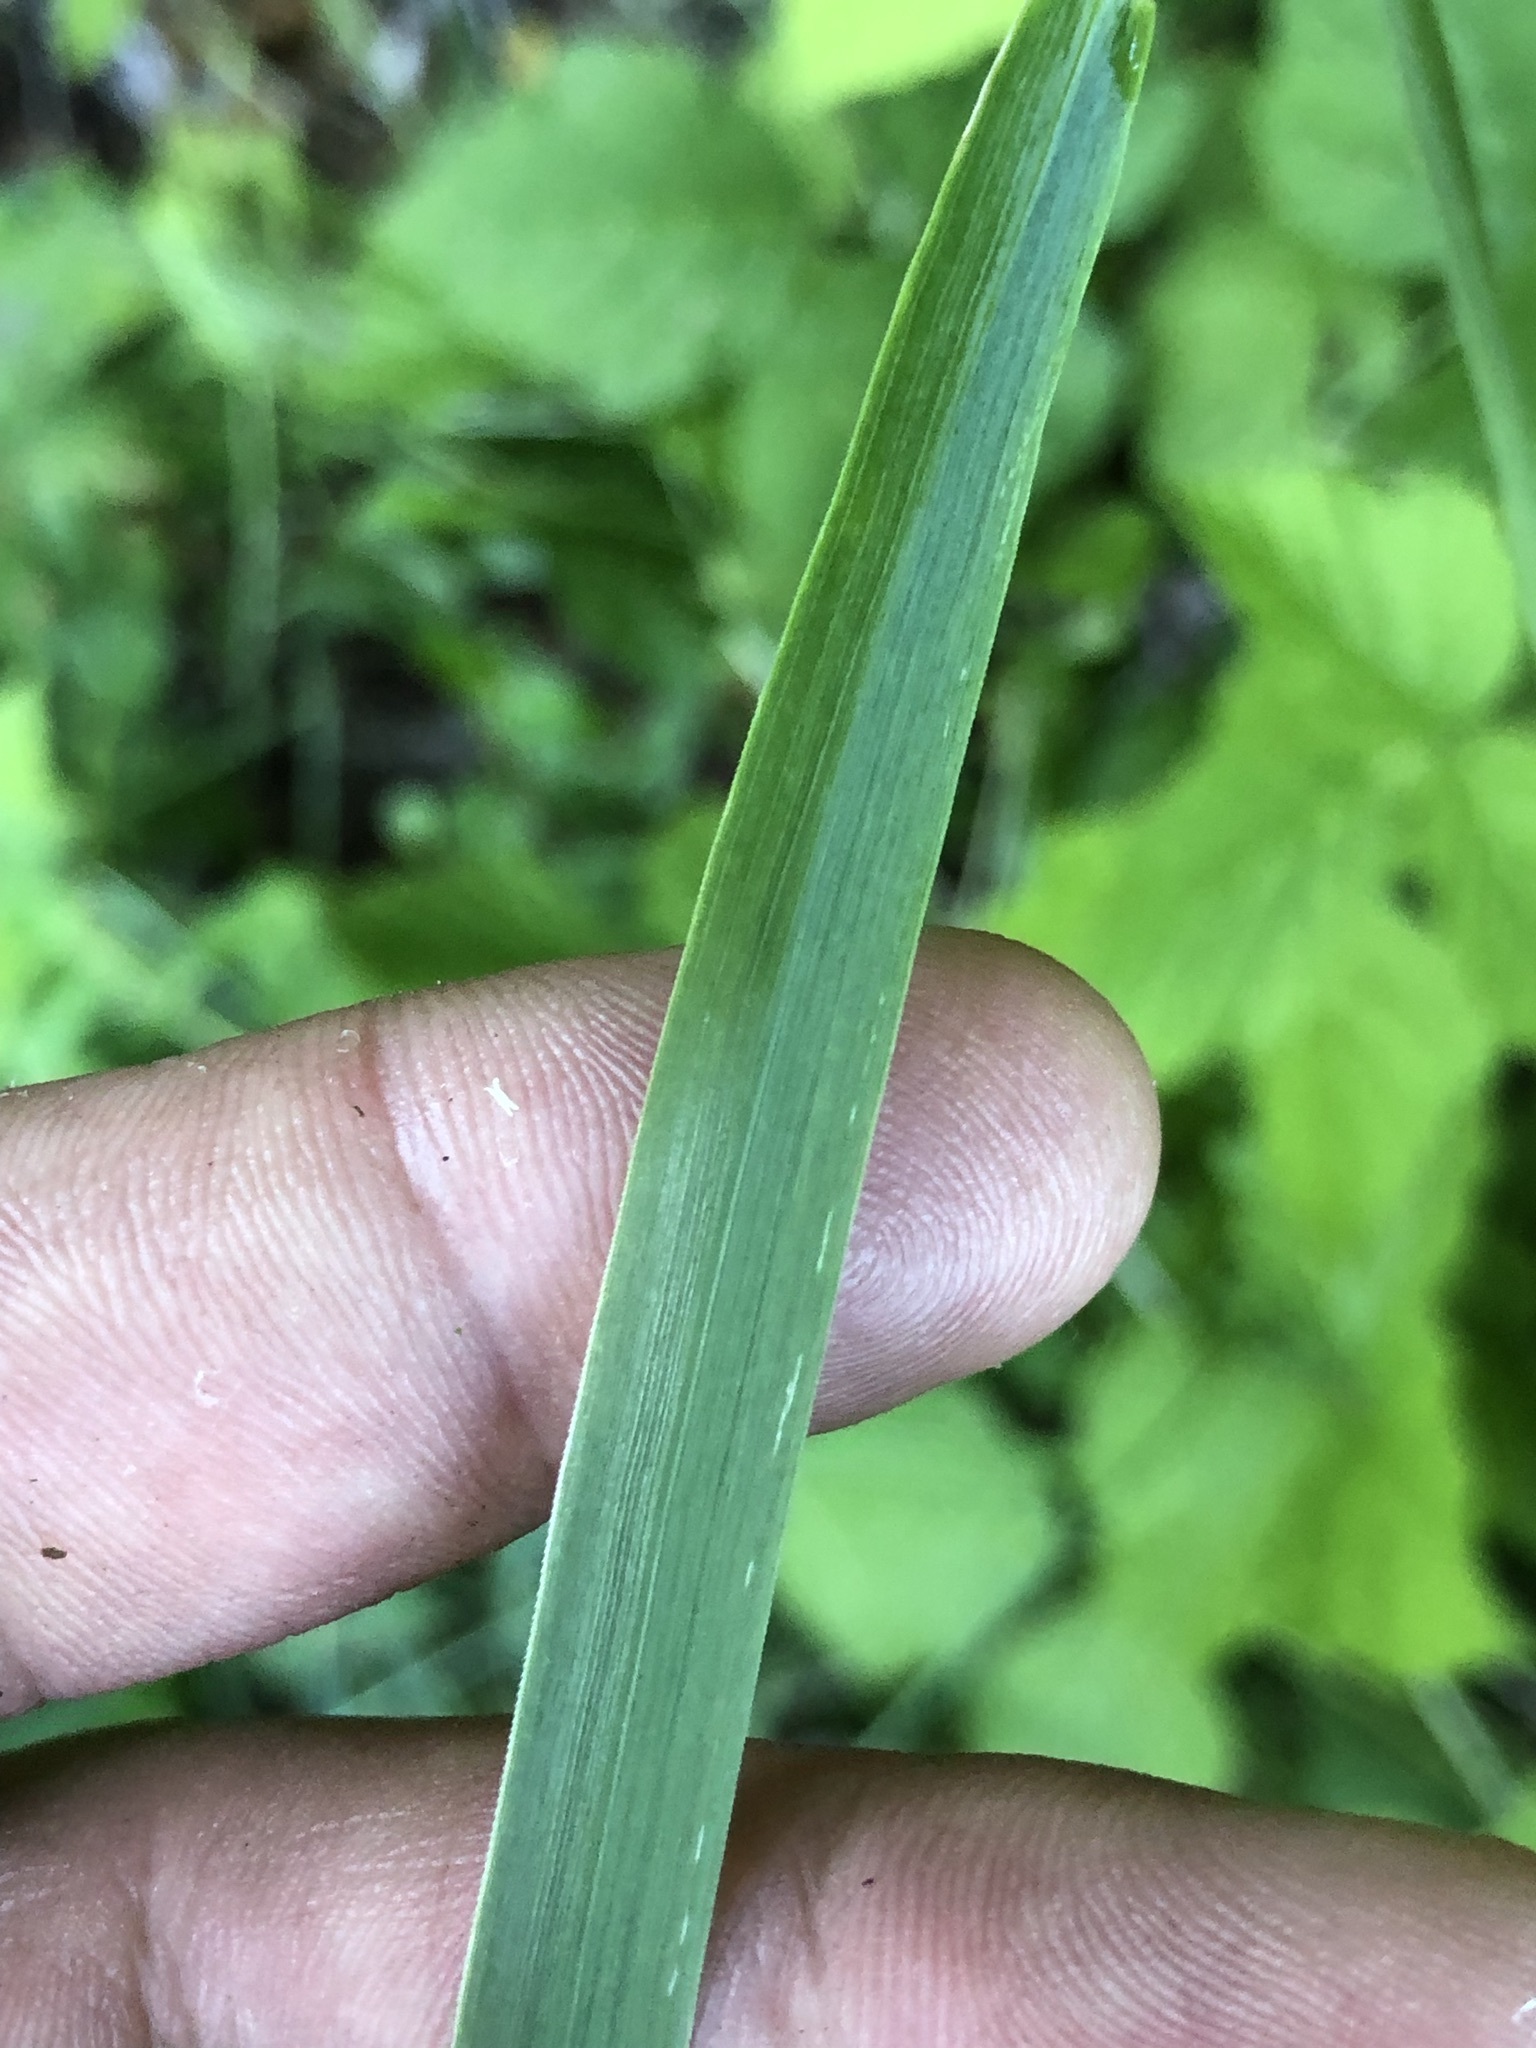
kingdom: Plantae
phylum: Tracheophyta
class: Liliopsida
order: Poales
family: Poaceae
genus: Calamagrostis
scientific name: Calamagrostis epigejos
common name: Wood small-reed
